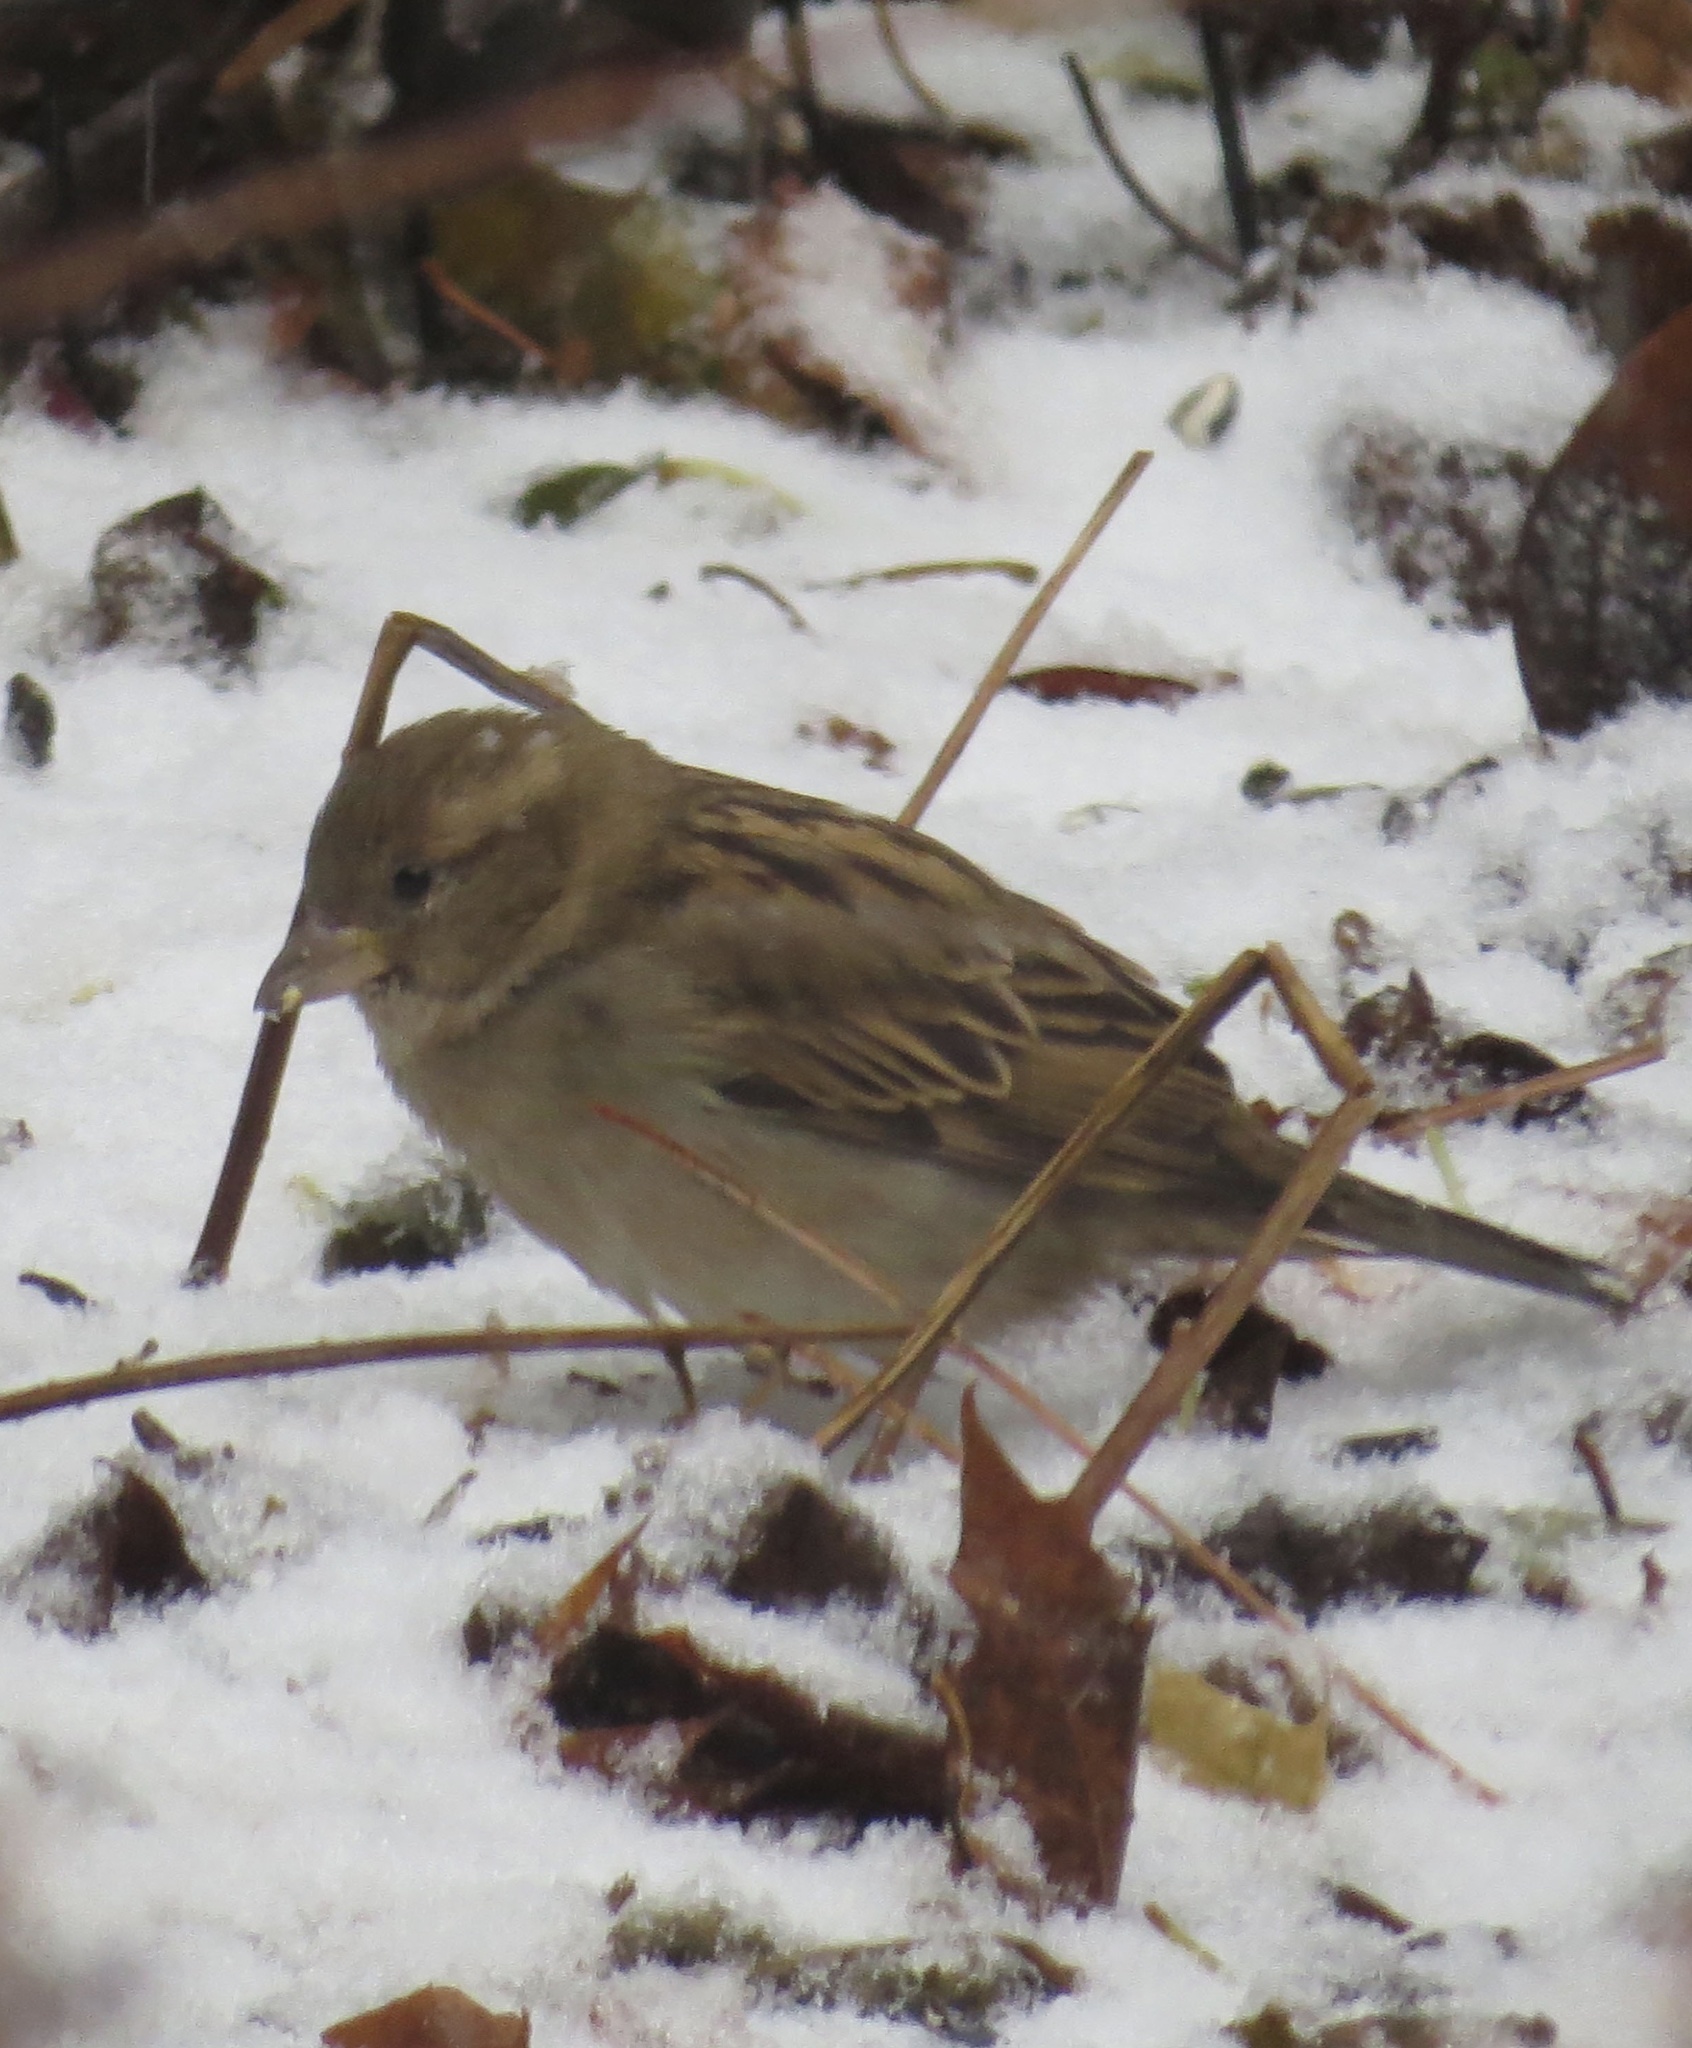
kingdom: Animalia
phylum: Chordata
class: Aves
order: Passeriformes
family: Passeridae
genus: Passer
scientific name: Passer domesticus
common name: House sparrow
